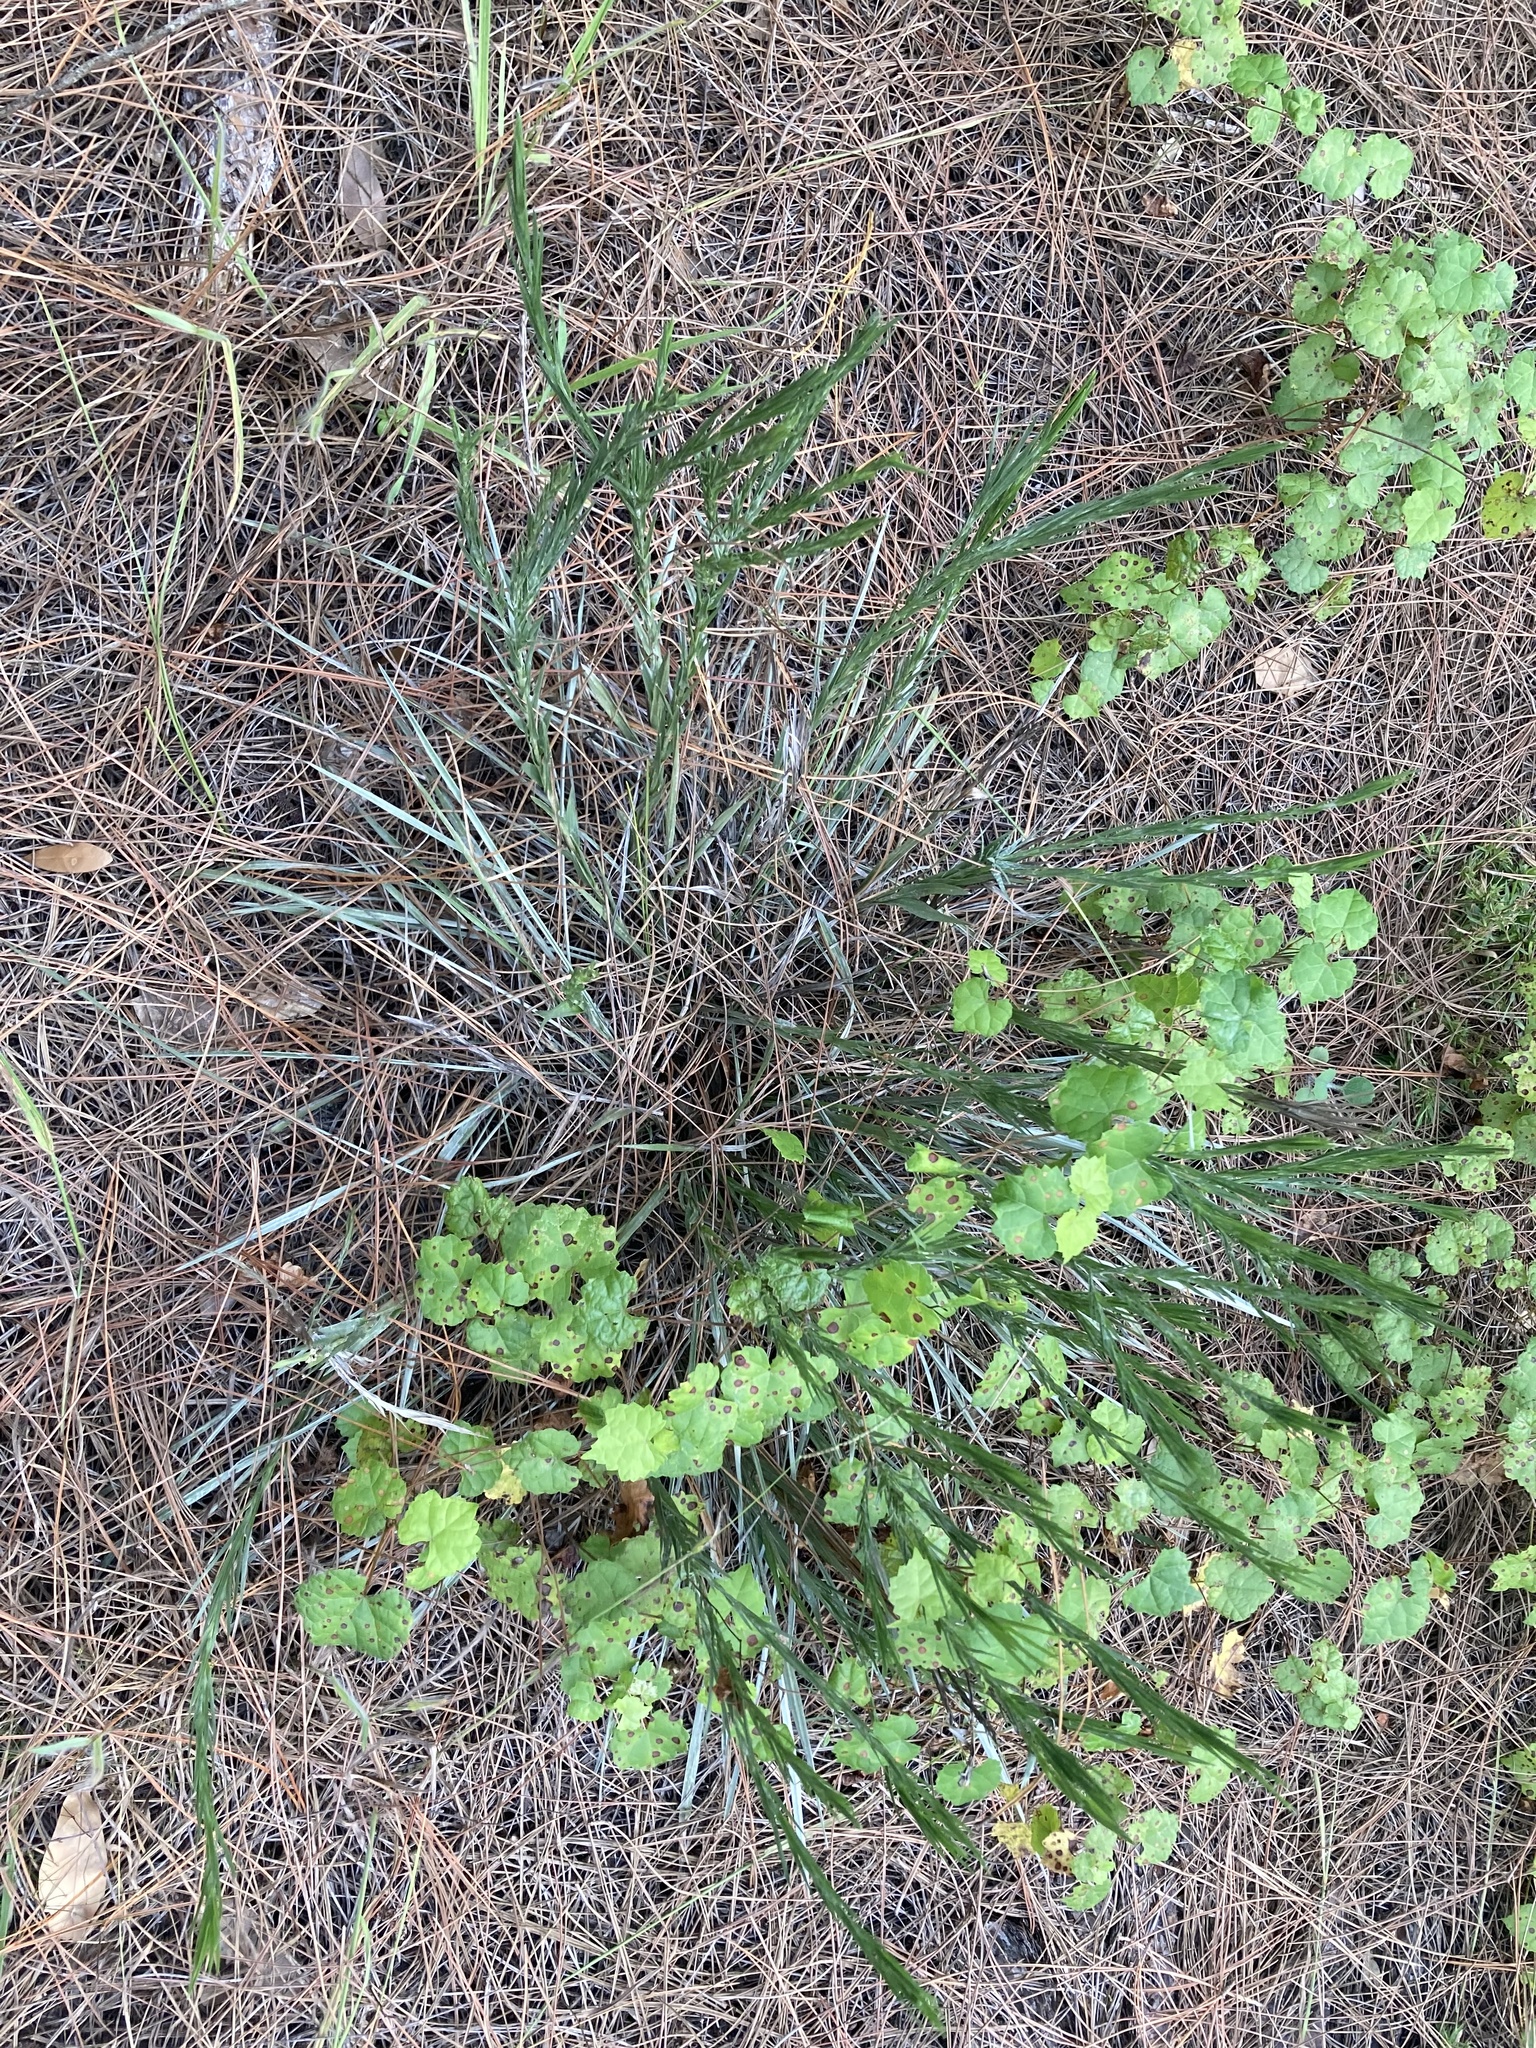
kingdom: Plantae
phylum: Tracheophyta
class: Magnoliopsida
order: Asterales
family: Asteraceae
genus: Pityopsis
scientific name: Pityopsis graminifolia
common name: Grass-leaf golden-aster
